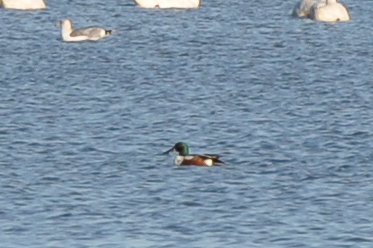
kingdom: Animalia
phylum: Chordata
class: Aves
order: Anseriformes
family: Anatidae
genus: Spatula
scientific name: Spatula clypeata
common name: Northern shoveler
